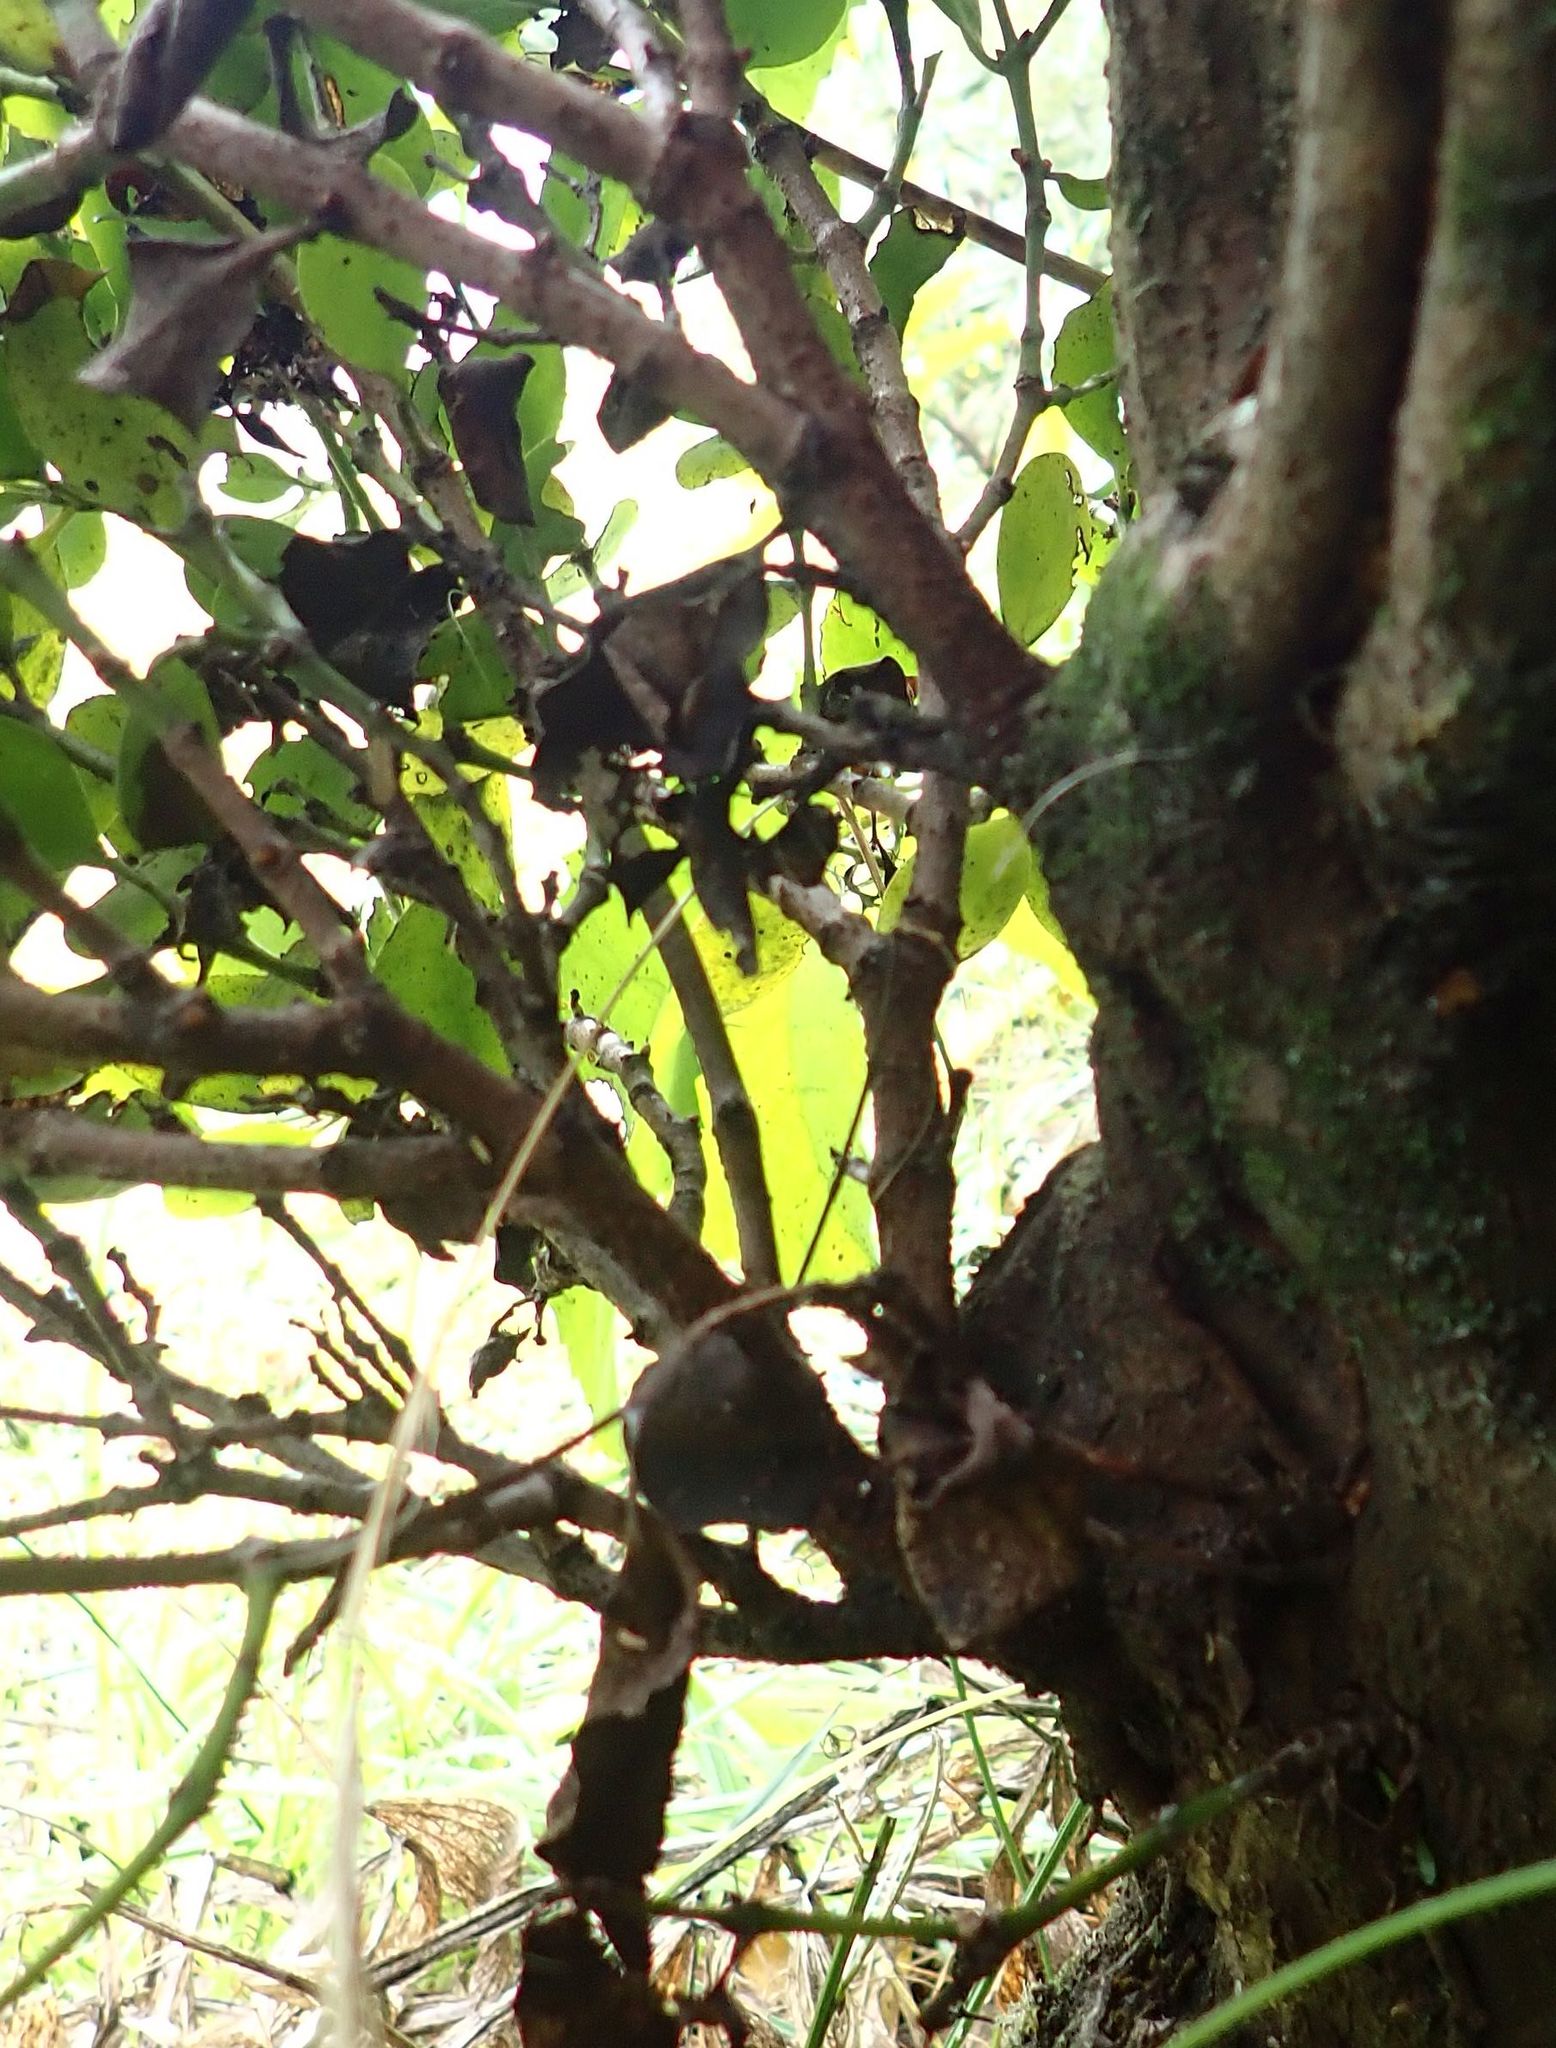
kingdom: Plantae
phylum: Tracheophyta
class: Magnoliopsida
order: Santalales
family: Loranthaceae
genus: Ileostylus
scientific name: Ileostylus micranthus
